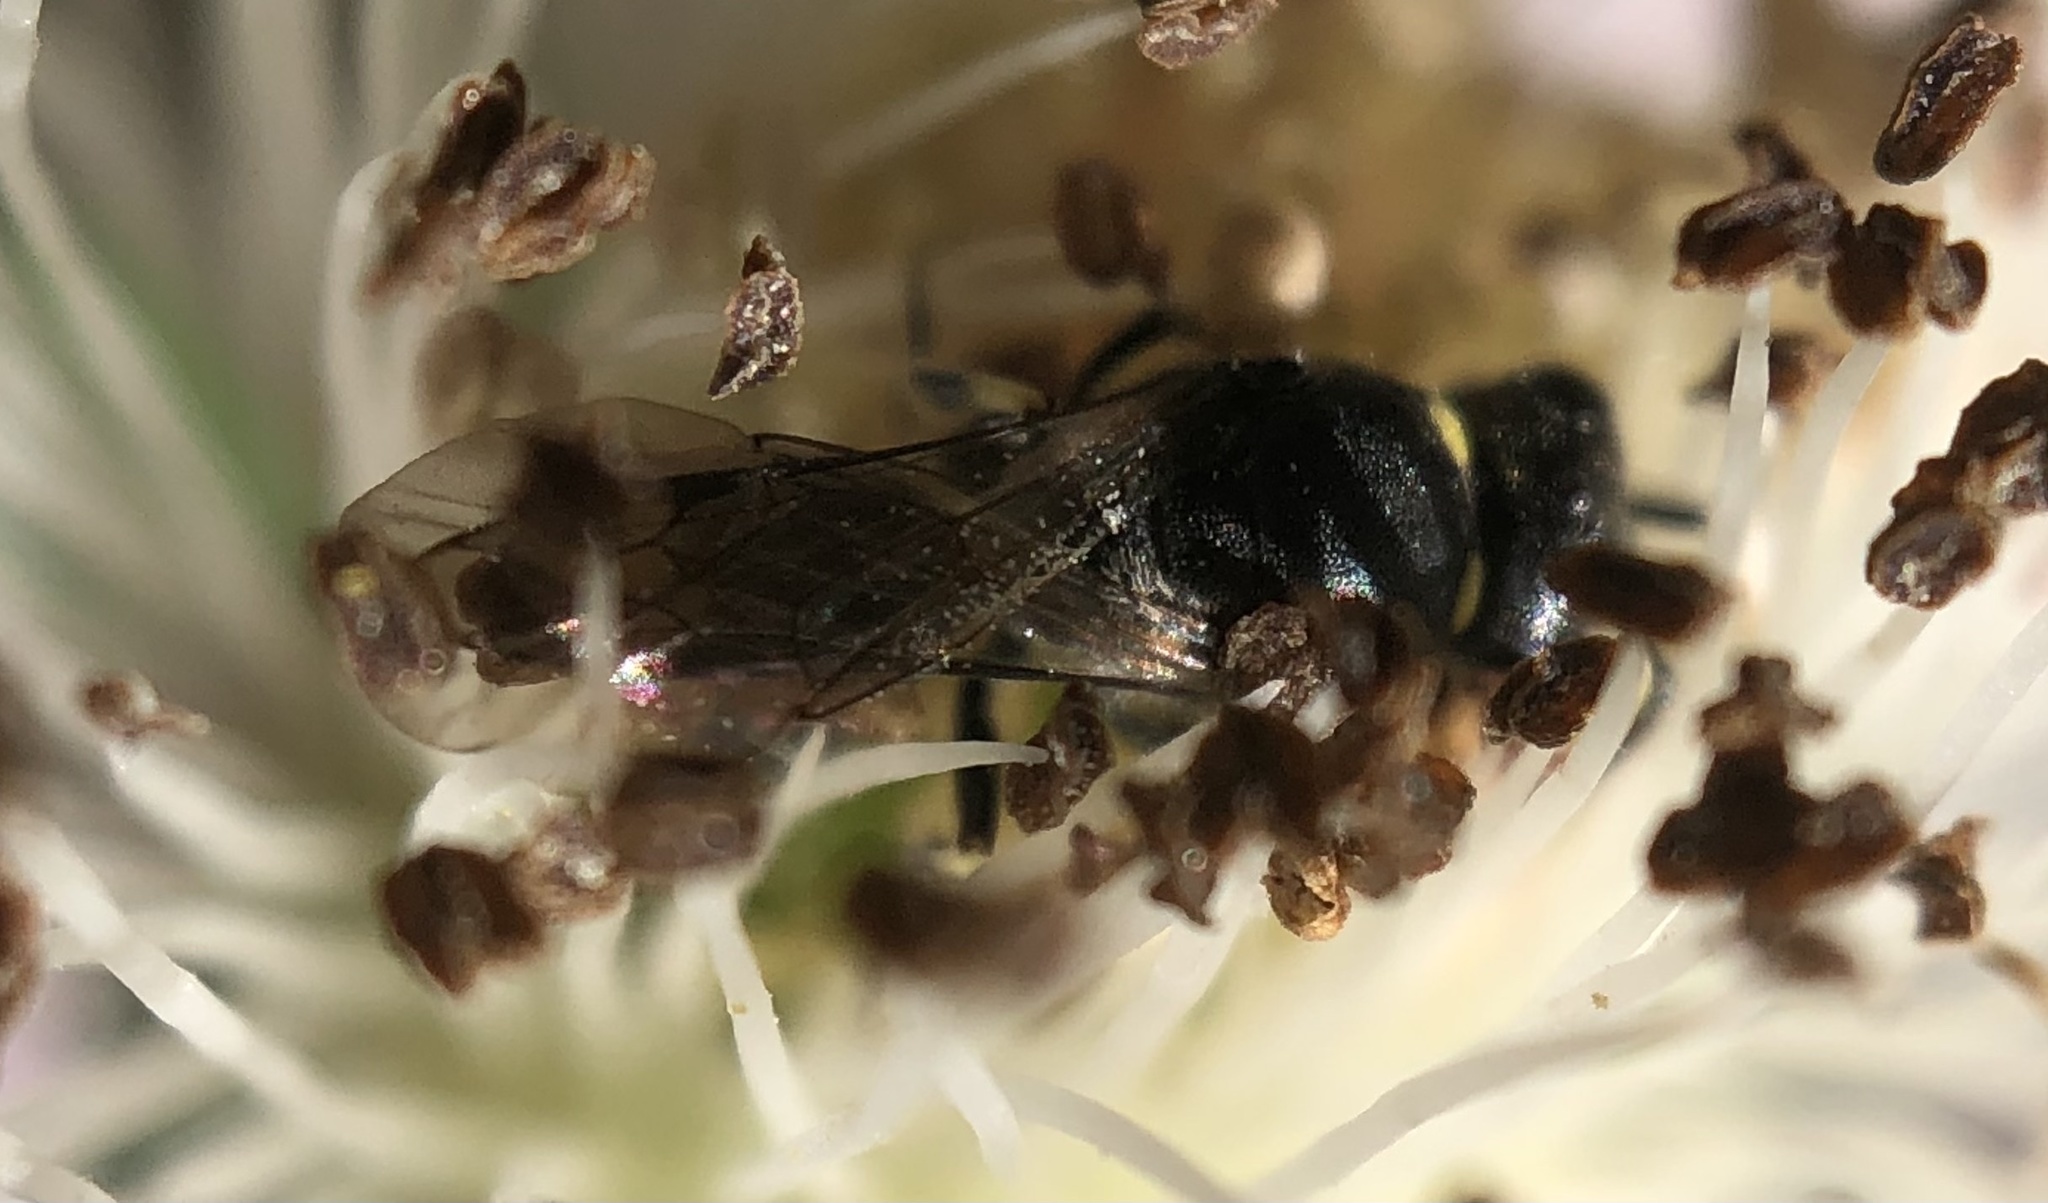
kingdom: Animalia
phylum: Arthropoda
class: Insecta
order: Hymenoptera
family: Colletidae
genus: Hylaeus
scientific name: Hylaeus modestus
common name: Yellow-faced bee
